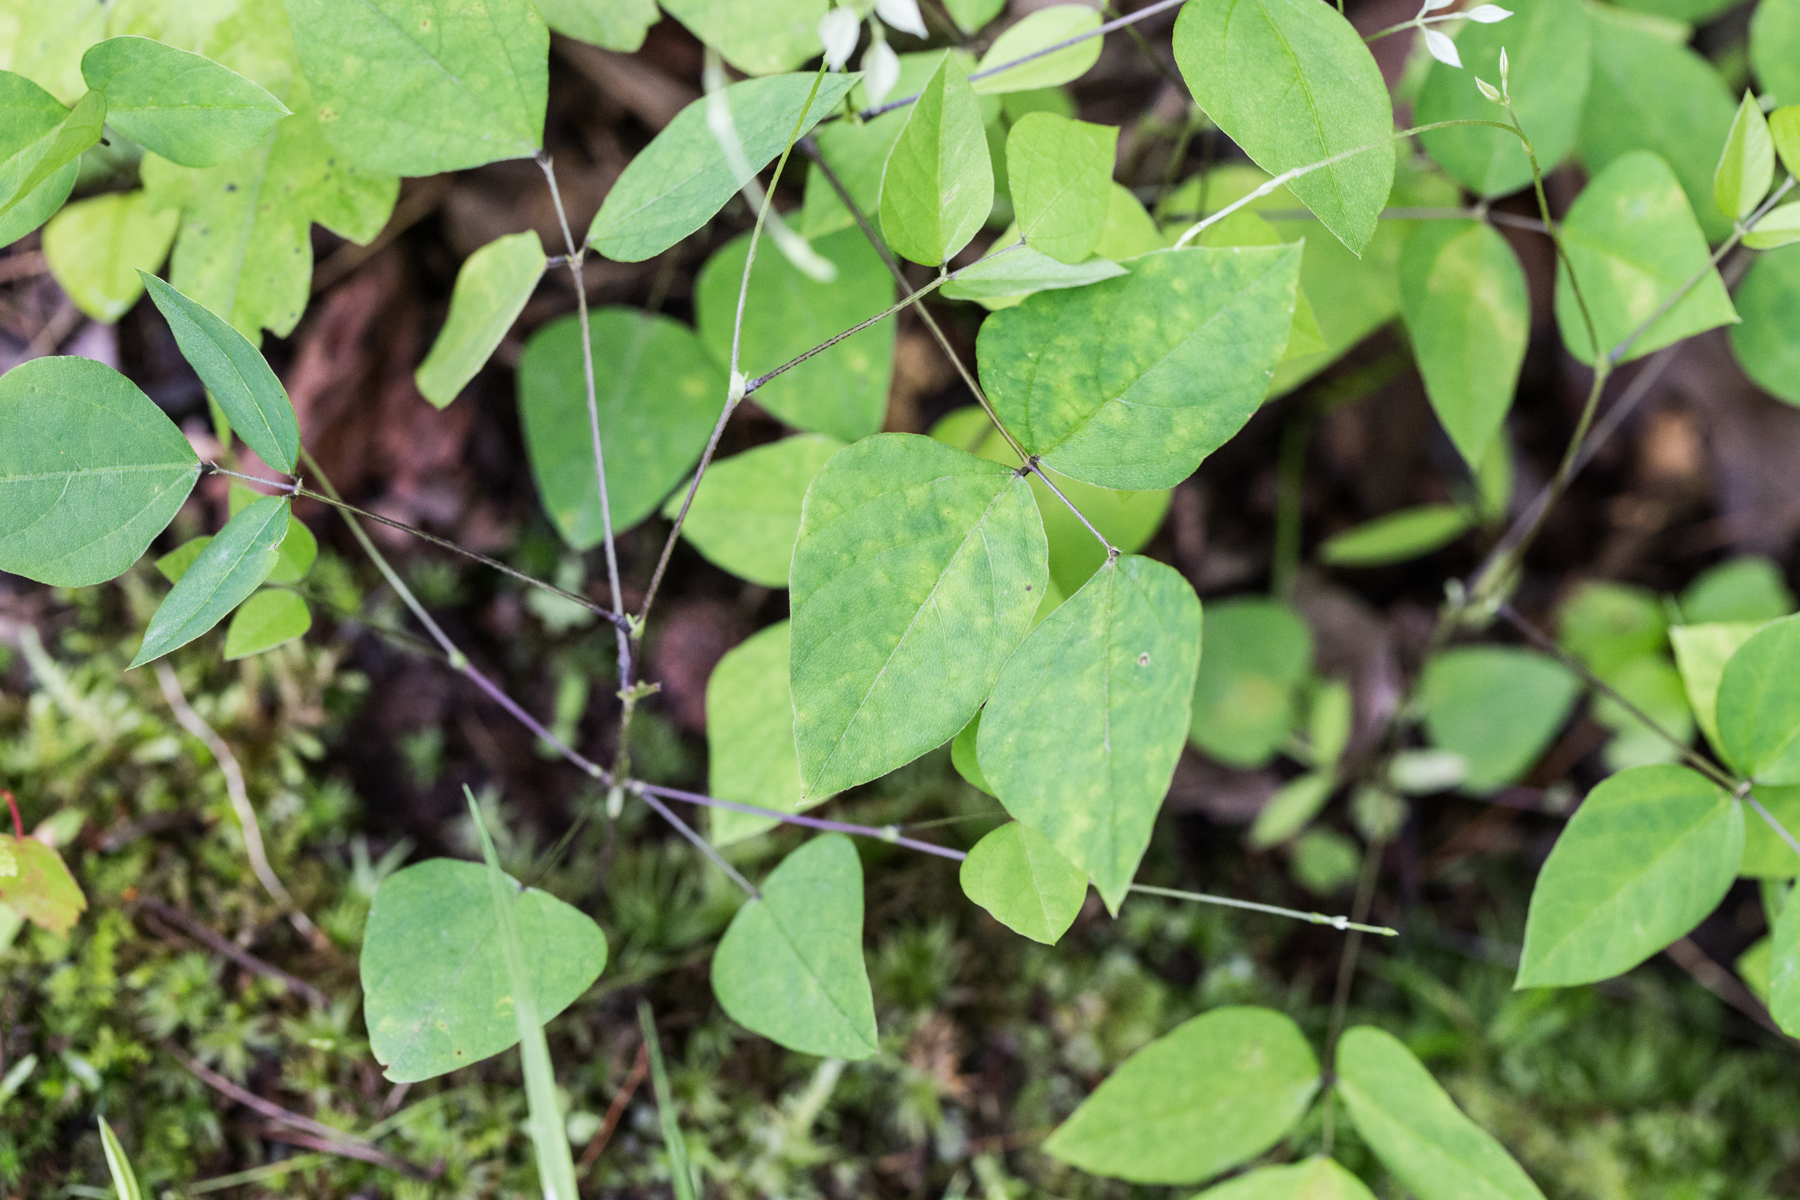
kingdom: Plantae
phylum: Tracheophyta
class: Magnoliopsida
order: Fabales
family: Fabaceae
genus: Amphicarpaea
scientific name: Amphicarpaea bracteata
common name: American hog peanut
